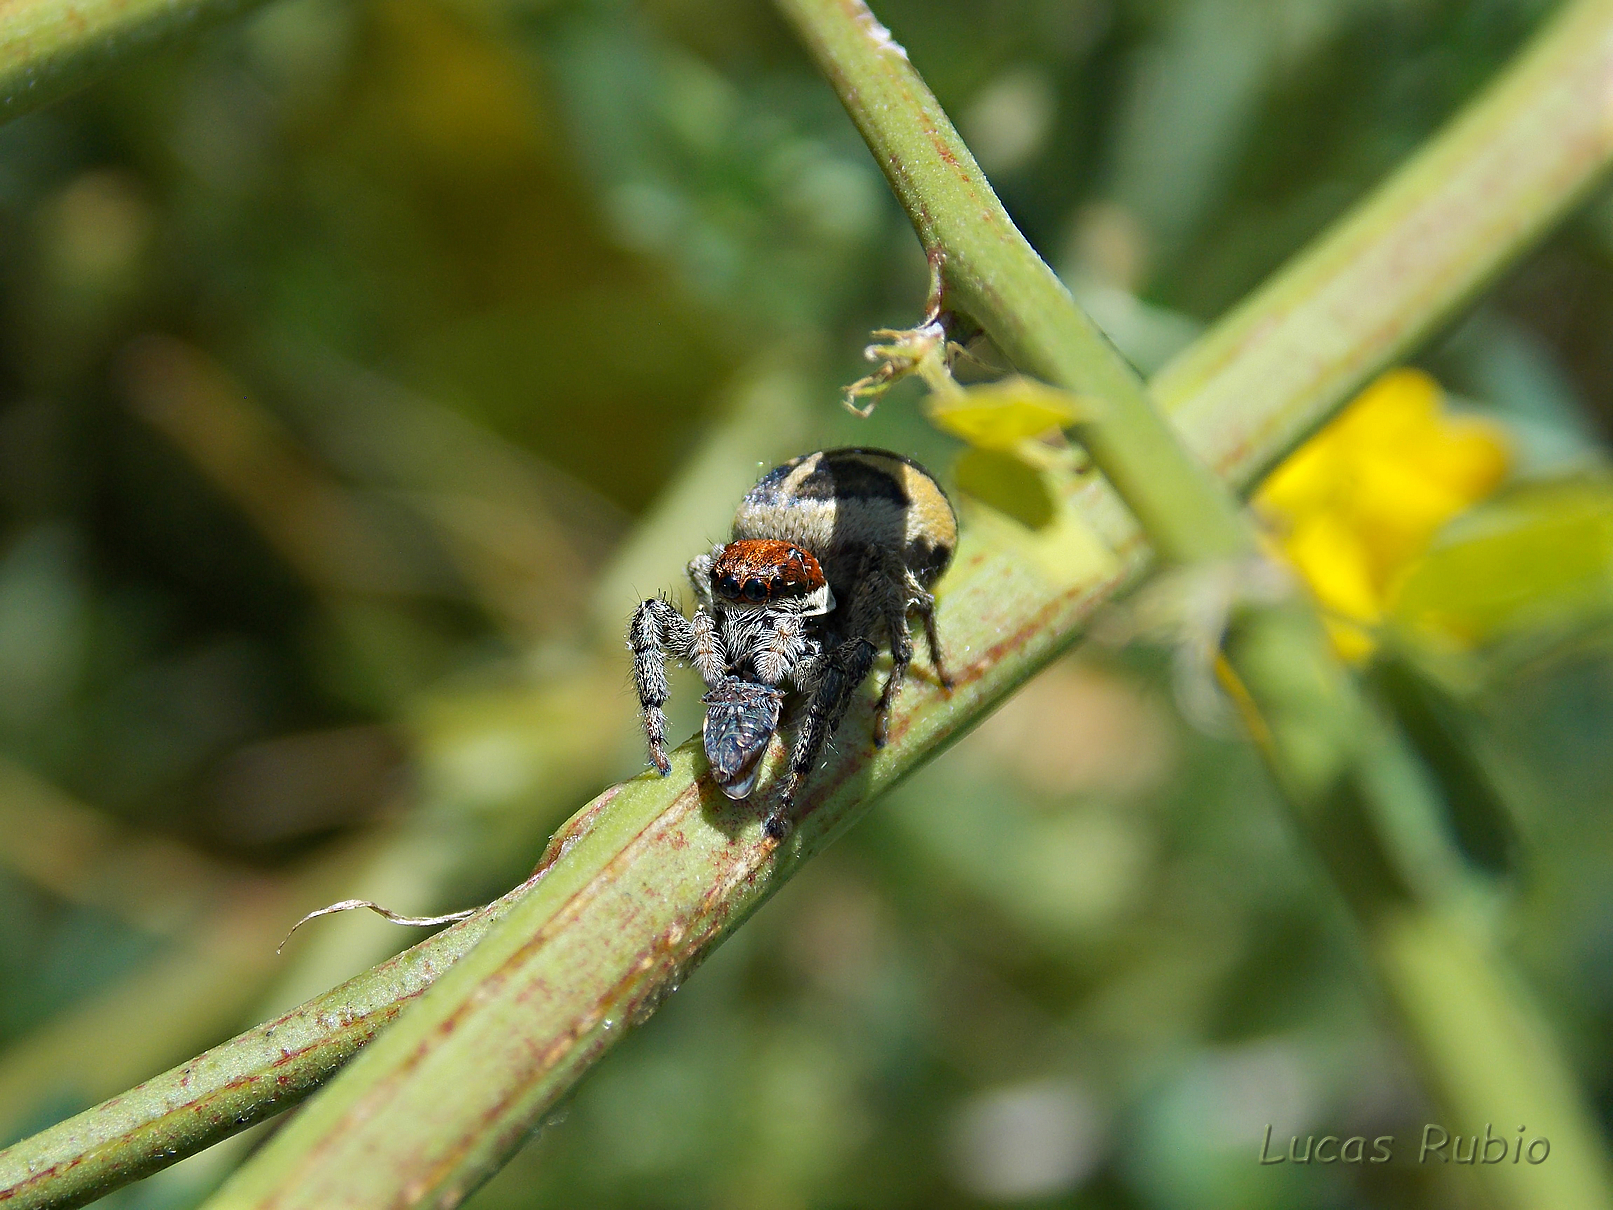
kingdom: Animalia
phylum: Arthropoda
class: Arachnida
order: Araneae
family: Salticidae
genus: Phiale
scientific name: Phiale roburifoliata
